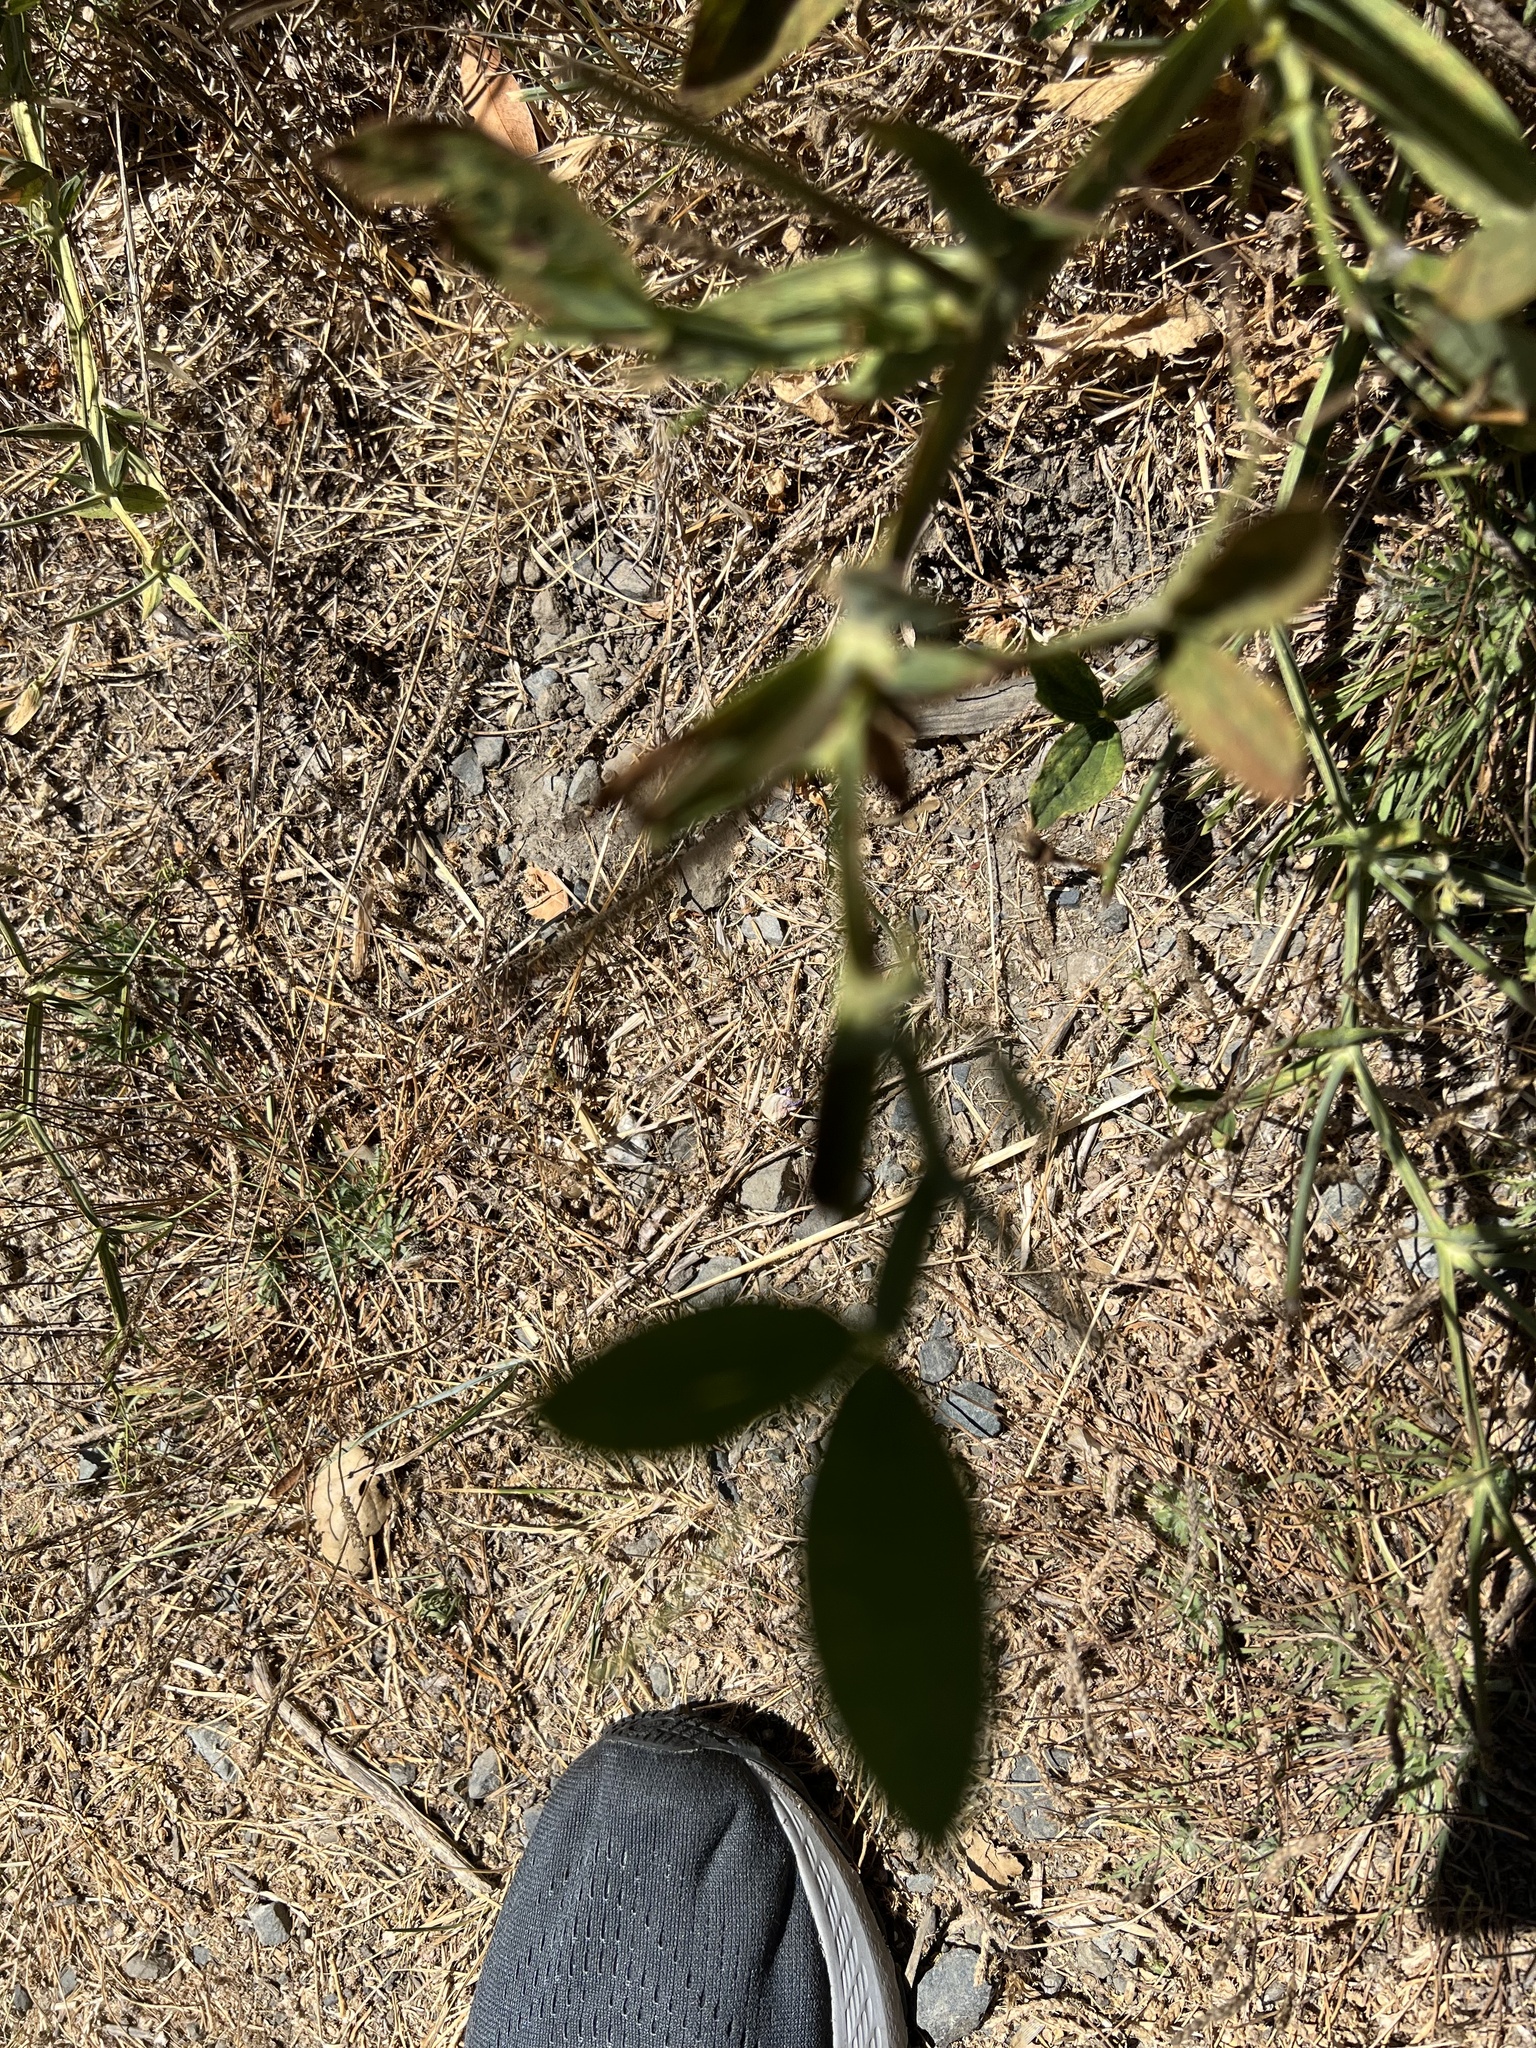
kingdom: Plantae
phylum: Tracheophyta
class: Magnoliopsida
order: Fabales
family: Fabaceae
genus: Lathyrus
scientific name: Lathyrus latifolius
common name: Perennial pea
